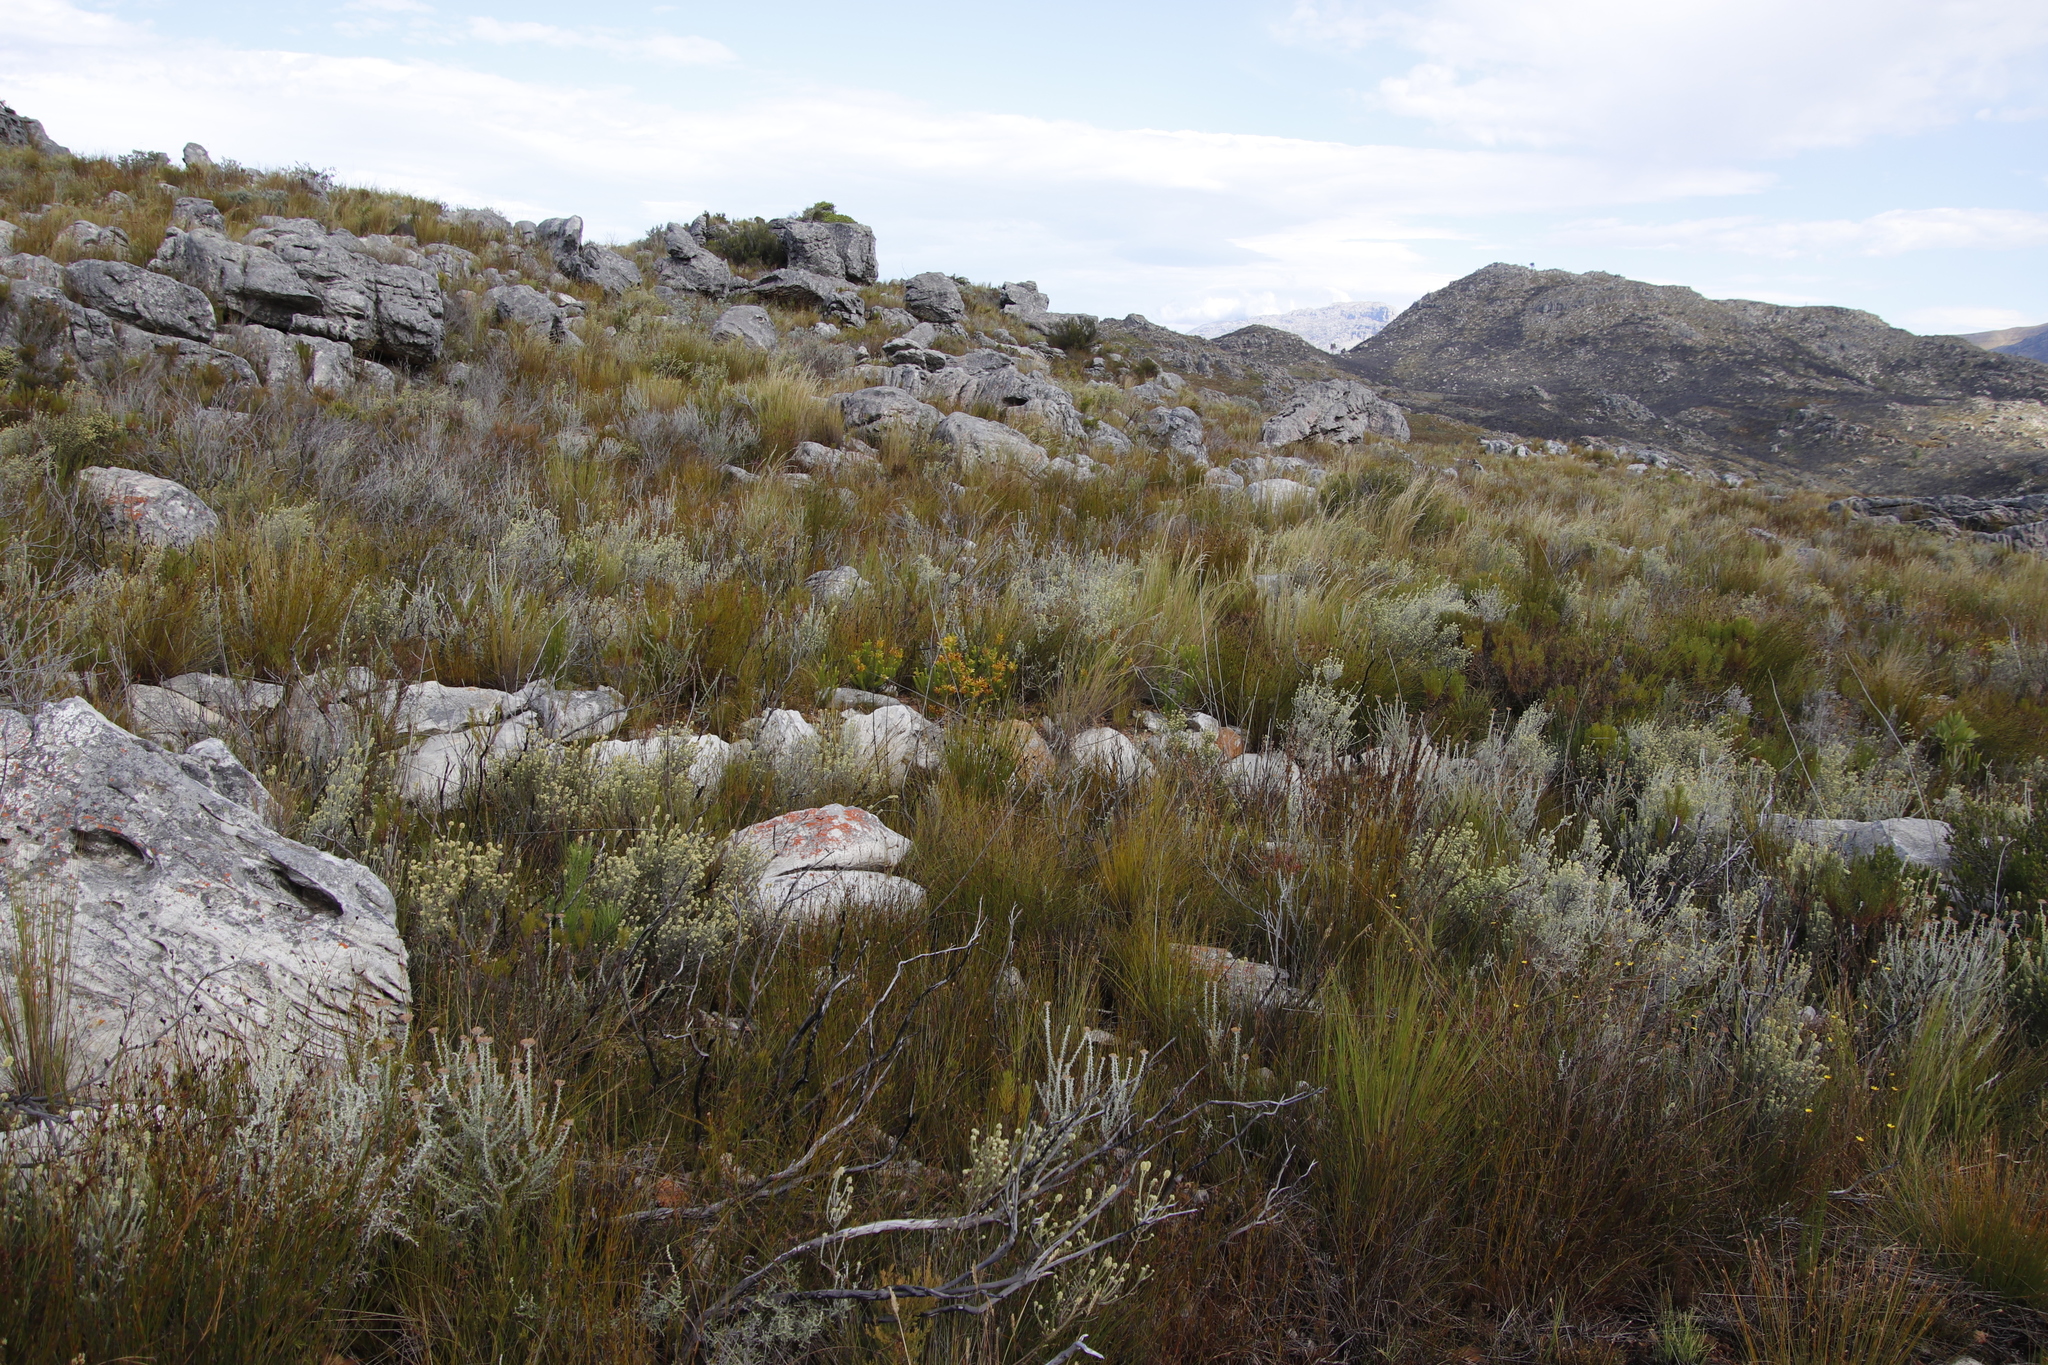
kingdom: Plantae
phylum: Tracheophyta
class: Magnoliopsida
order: Asterales
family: Asteraceae
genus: Metalasia
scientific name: Metalasia densa
